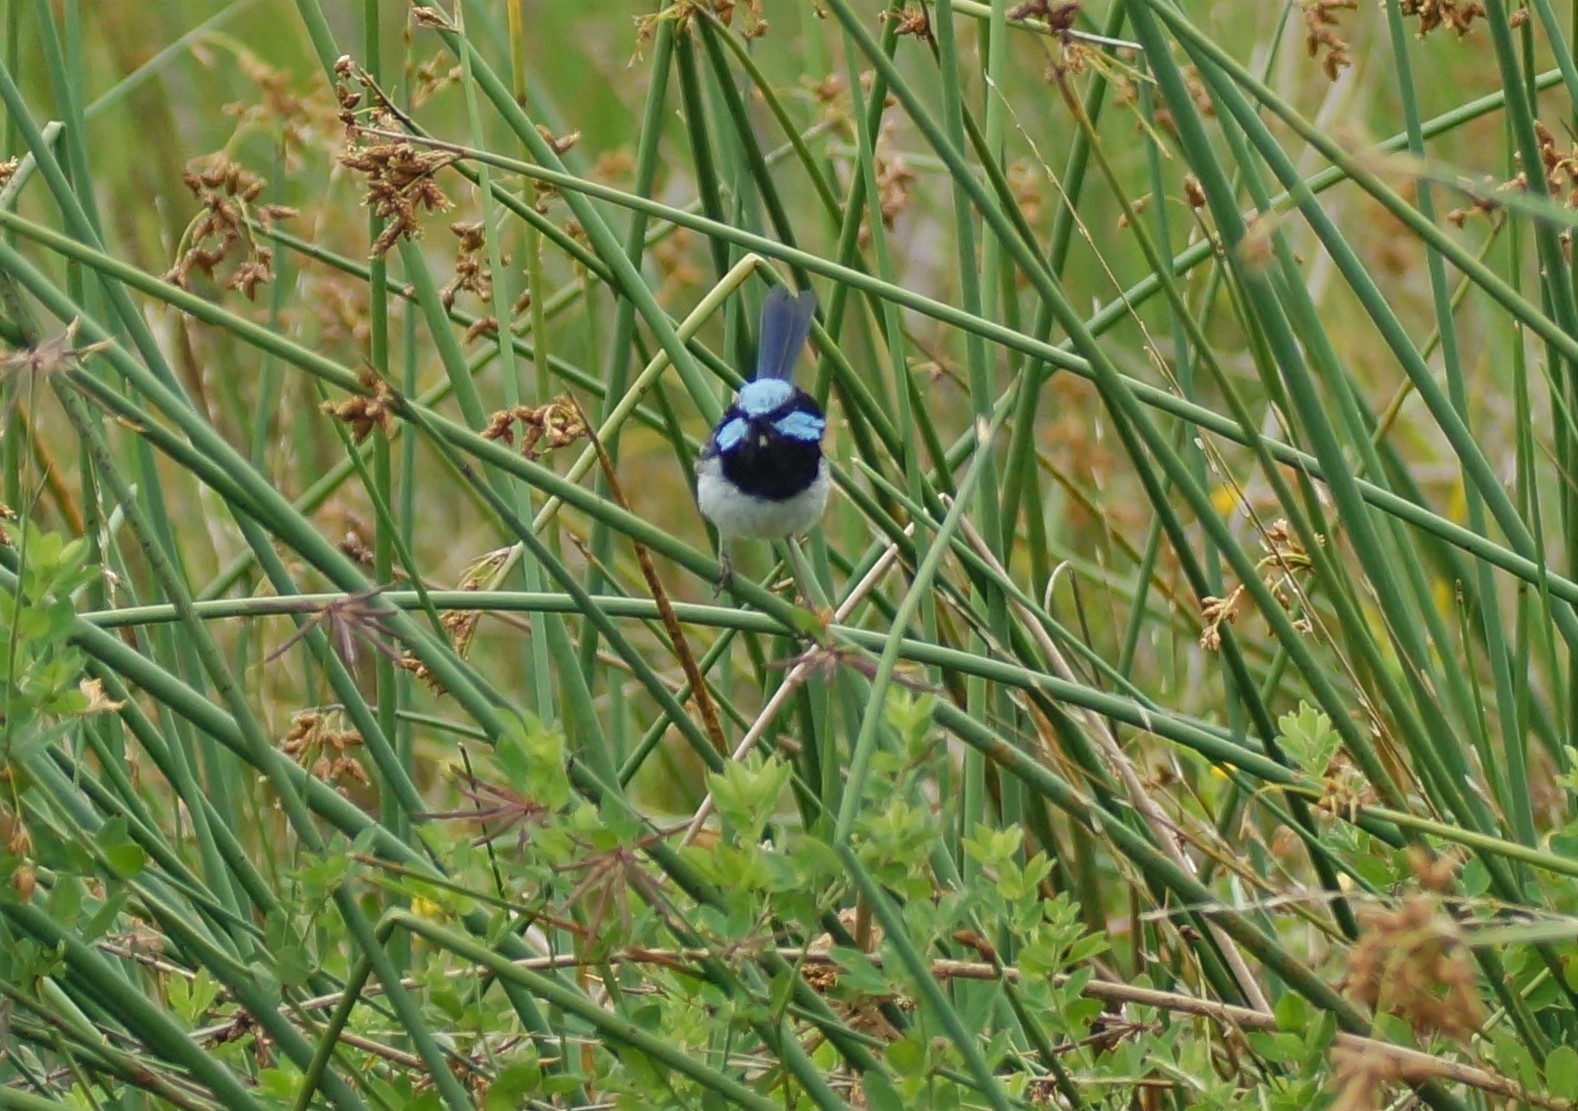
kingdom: Animalia
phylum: Chordata
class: Aves
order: Passeriformes
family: Maluridae
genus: Malurus
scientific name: Malurus cyaneus
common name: Superb fairywren
